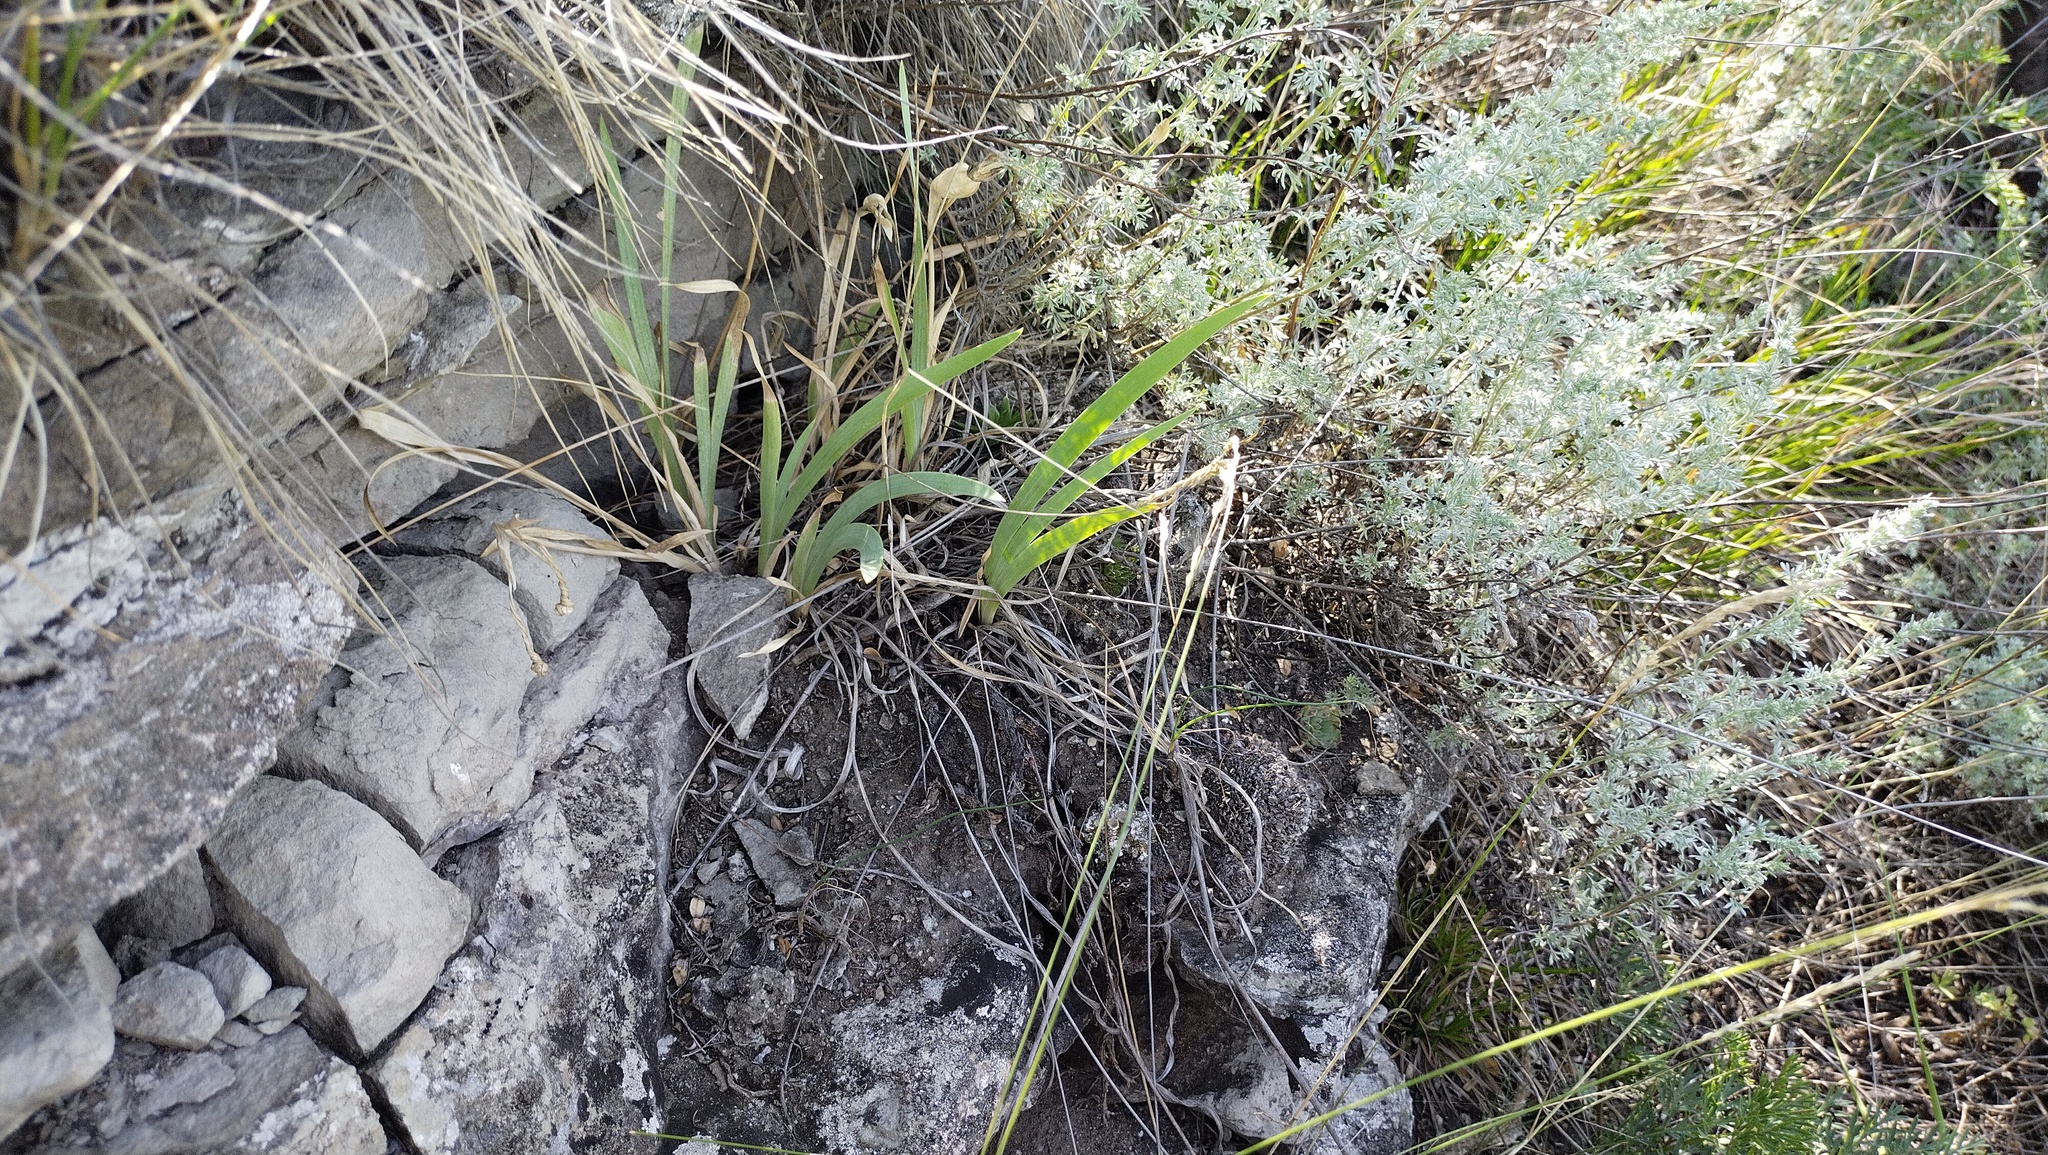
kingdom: Plantae
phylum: Tracheophyta
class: Liliopsida
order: Asparagales
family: Iridaceae
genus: Iris
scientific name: Iris humilis
